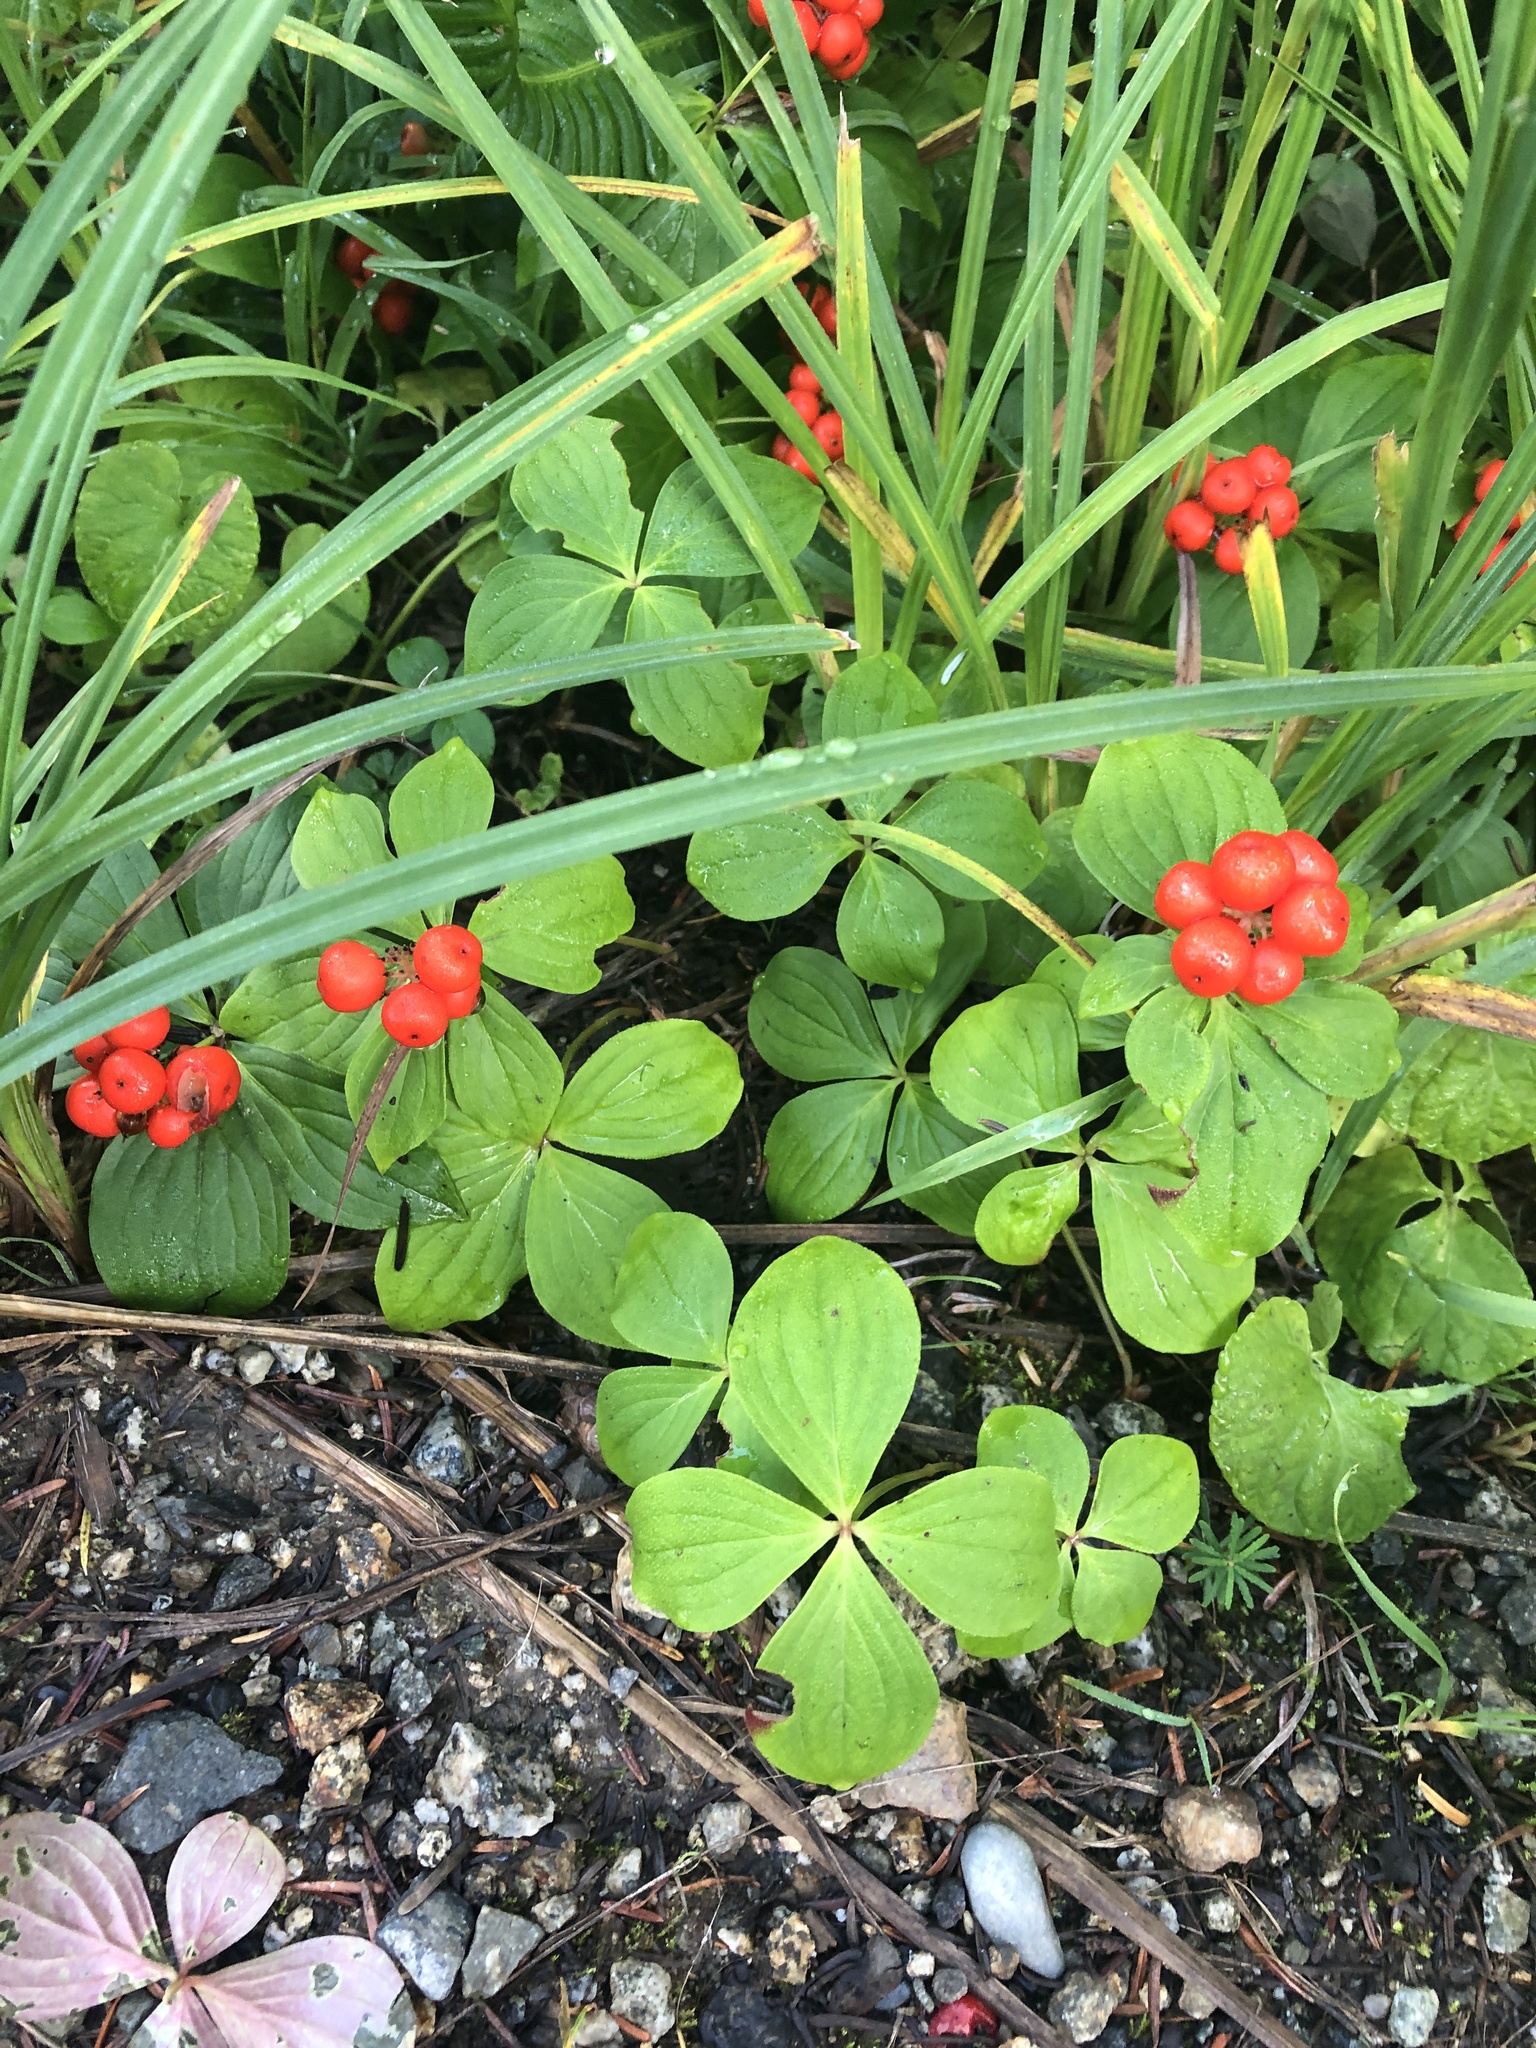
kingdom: Plantae
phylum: Tracheophyta
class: Magnoliopsida
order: Cornales
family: Cornaceae
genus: Cornus
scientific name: Cornus unalaschkensis
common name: Alaska bunchberry
